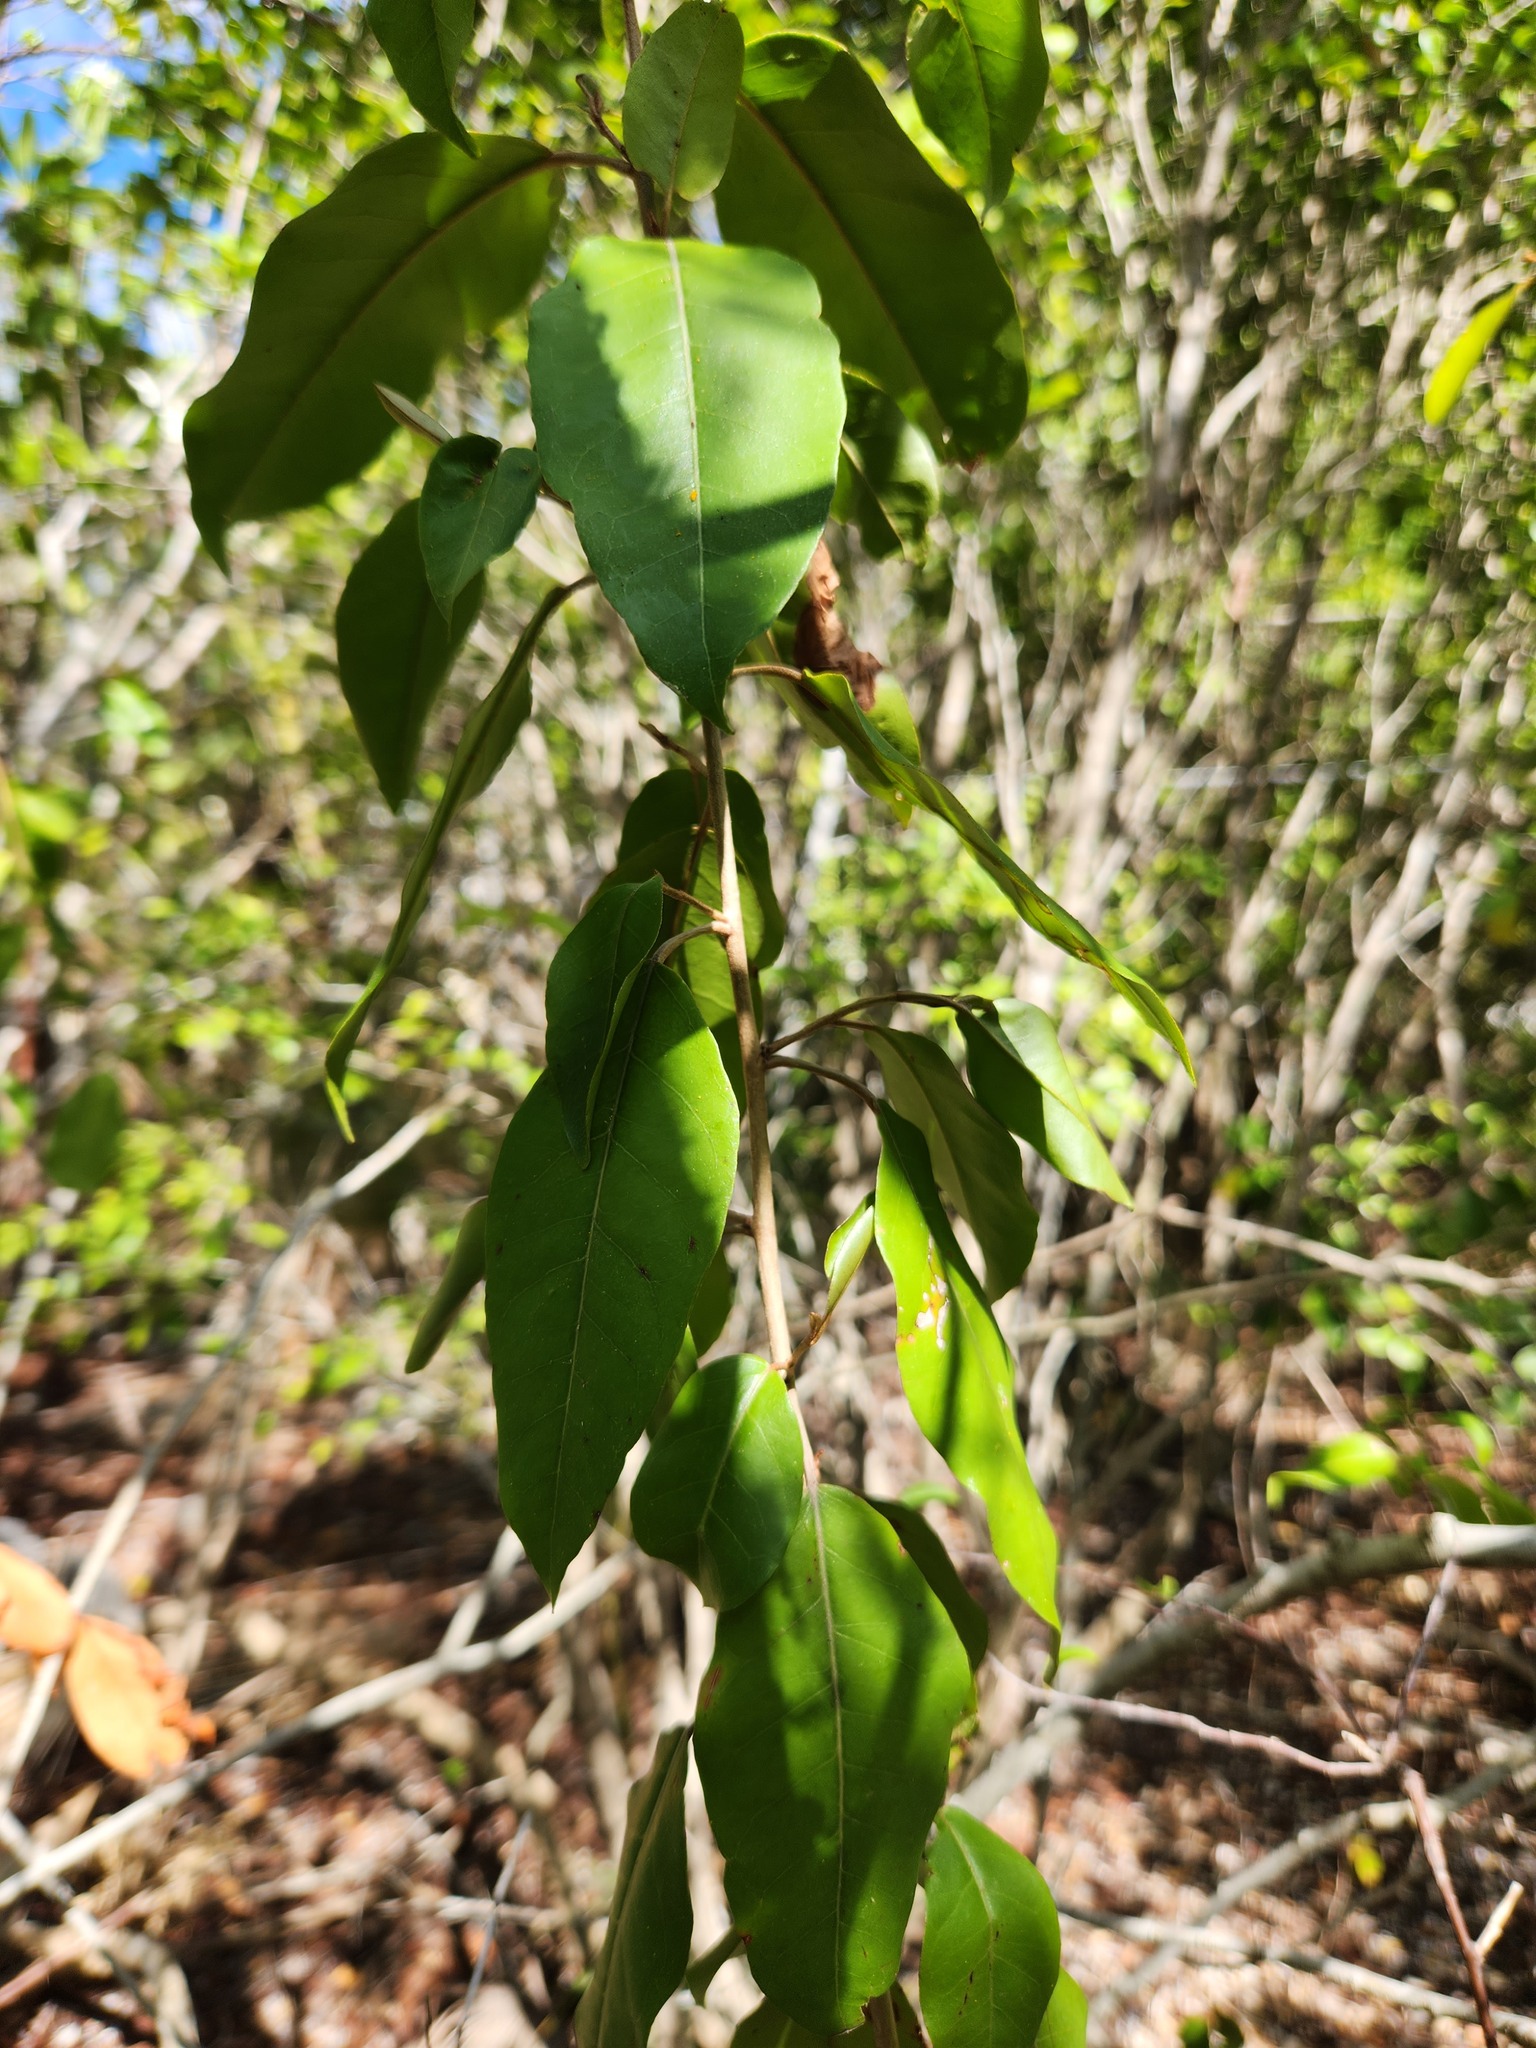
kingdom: Plantae
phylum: Tracheophyta
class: Magnoliopsida
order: Malpighiales
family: Euphorbiaceae
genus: Croton
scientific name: Croton nitens
